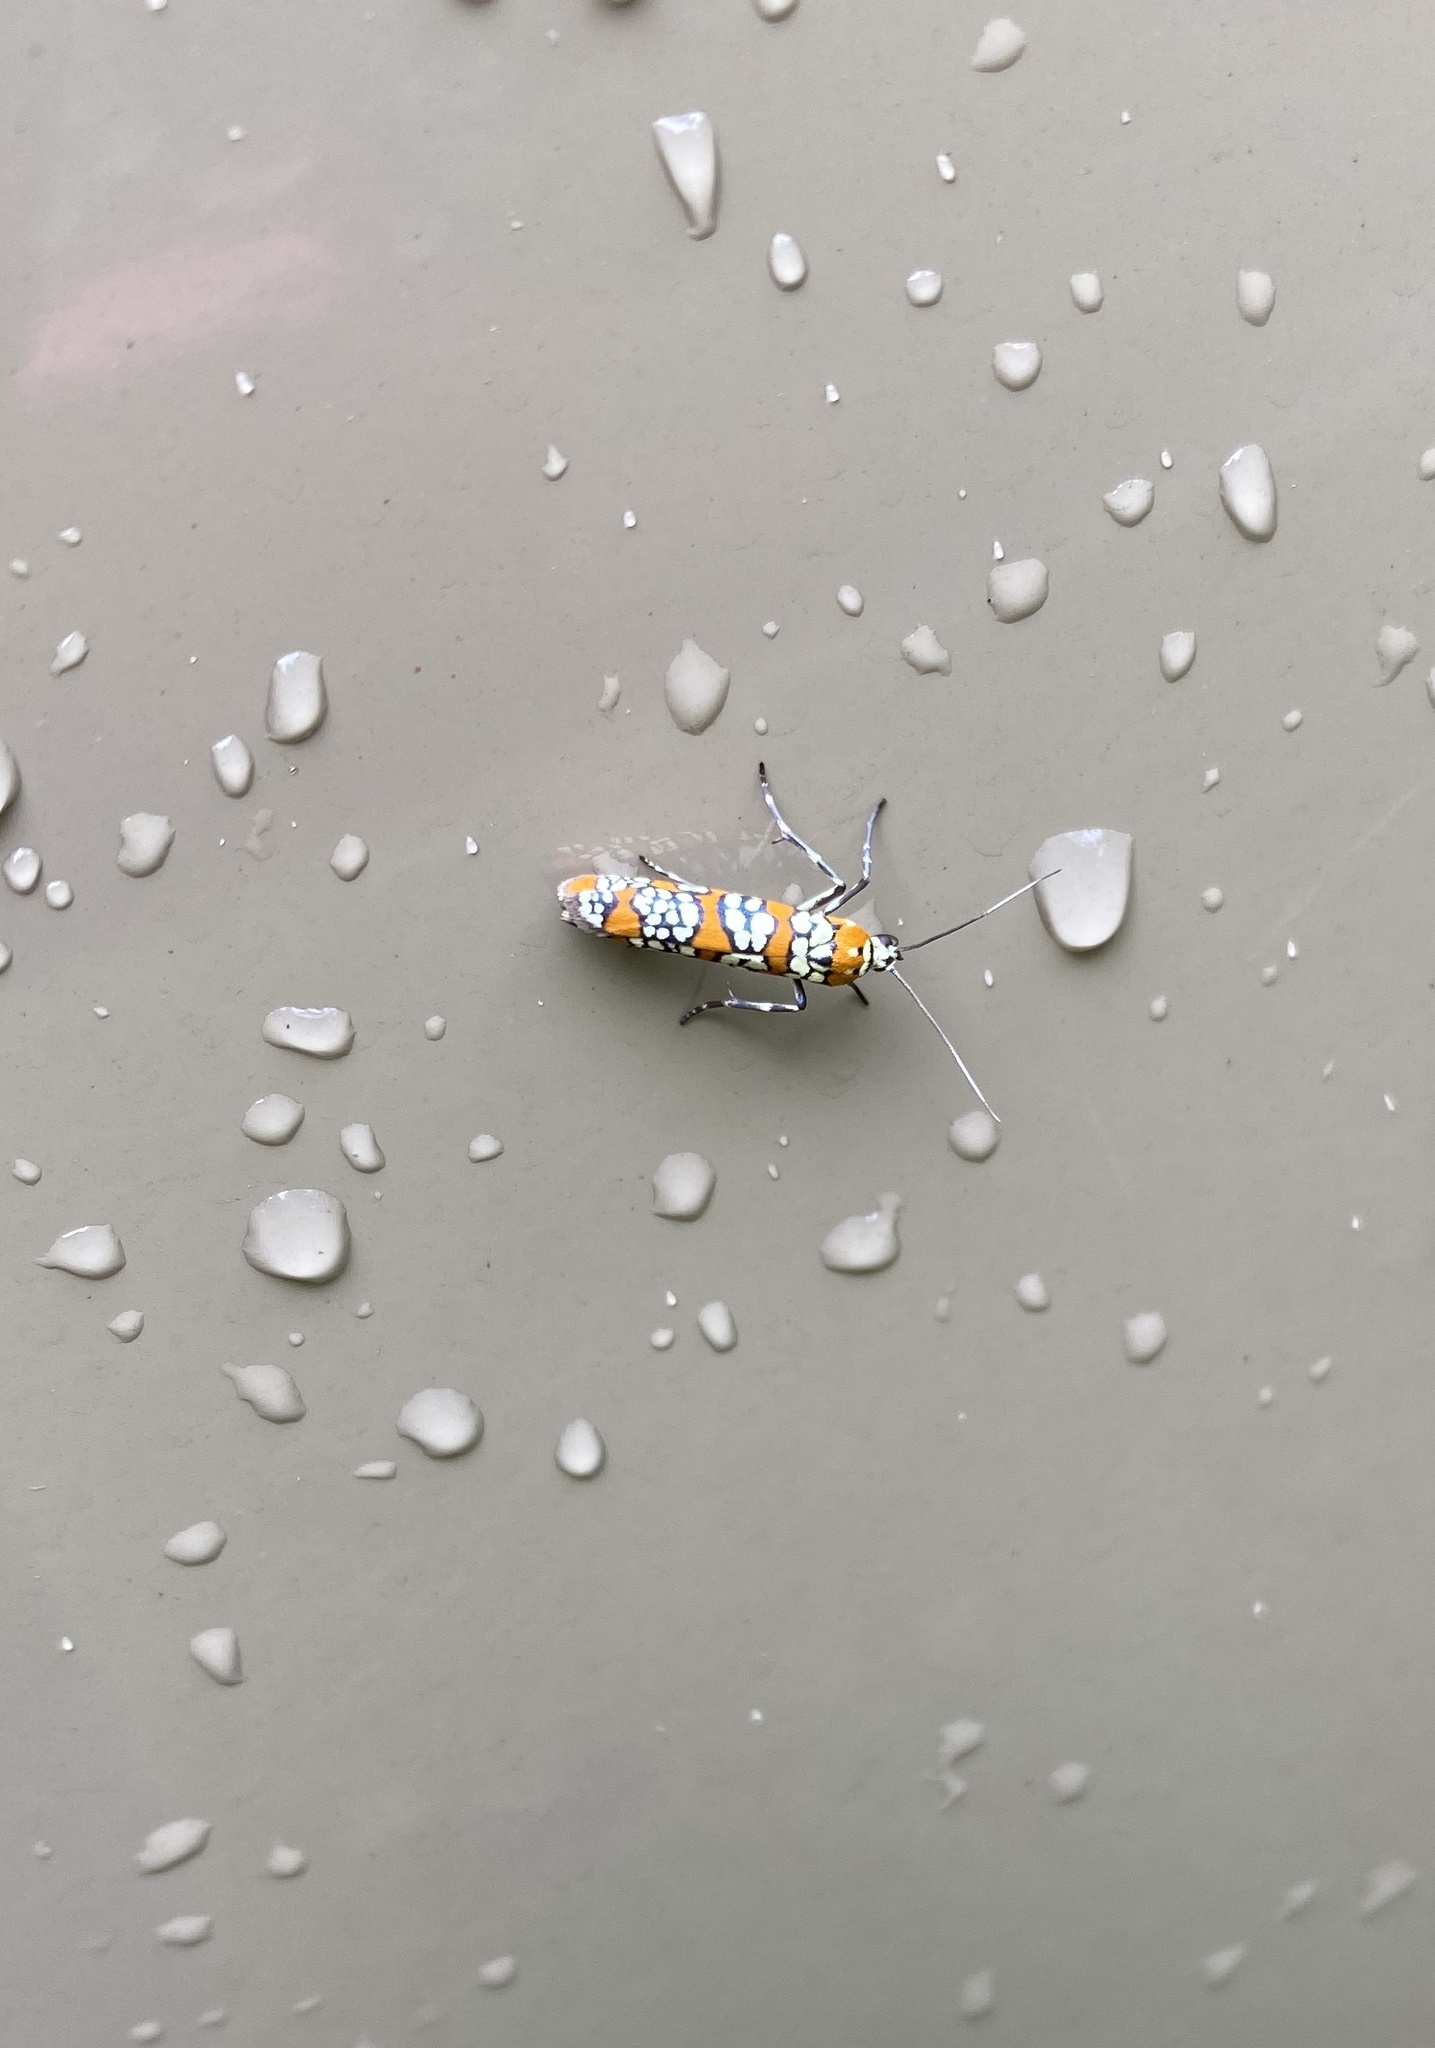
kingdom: Animalia
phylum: Arthropoda
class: Insecta
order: Lepidoptera
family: Attevidae
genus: Atteva
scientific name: Atteva punctella
